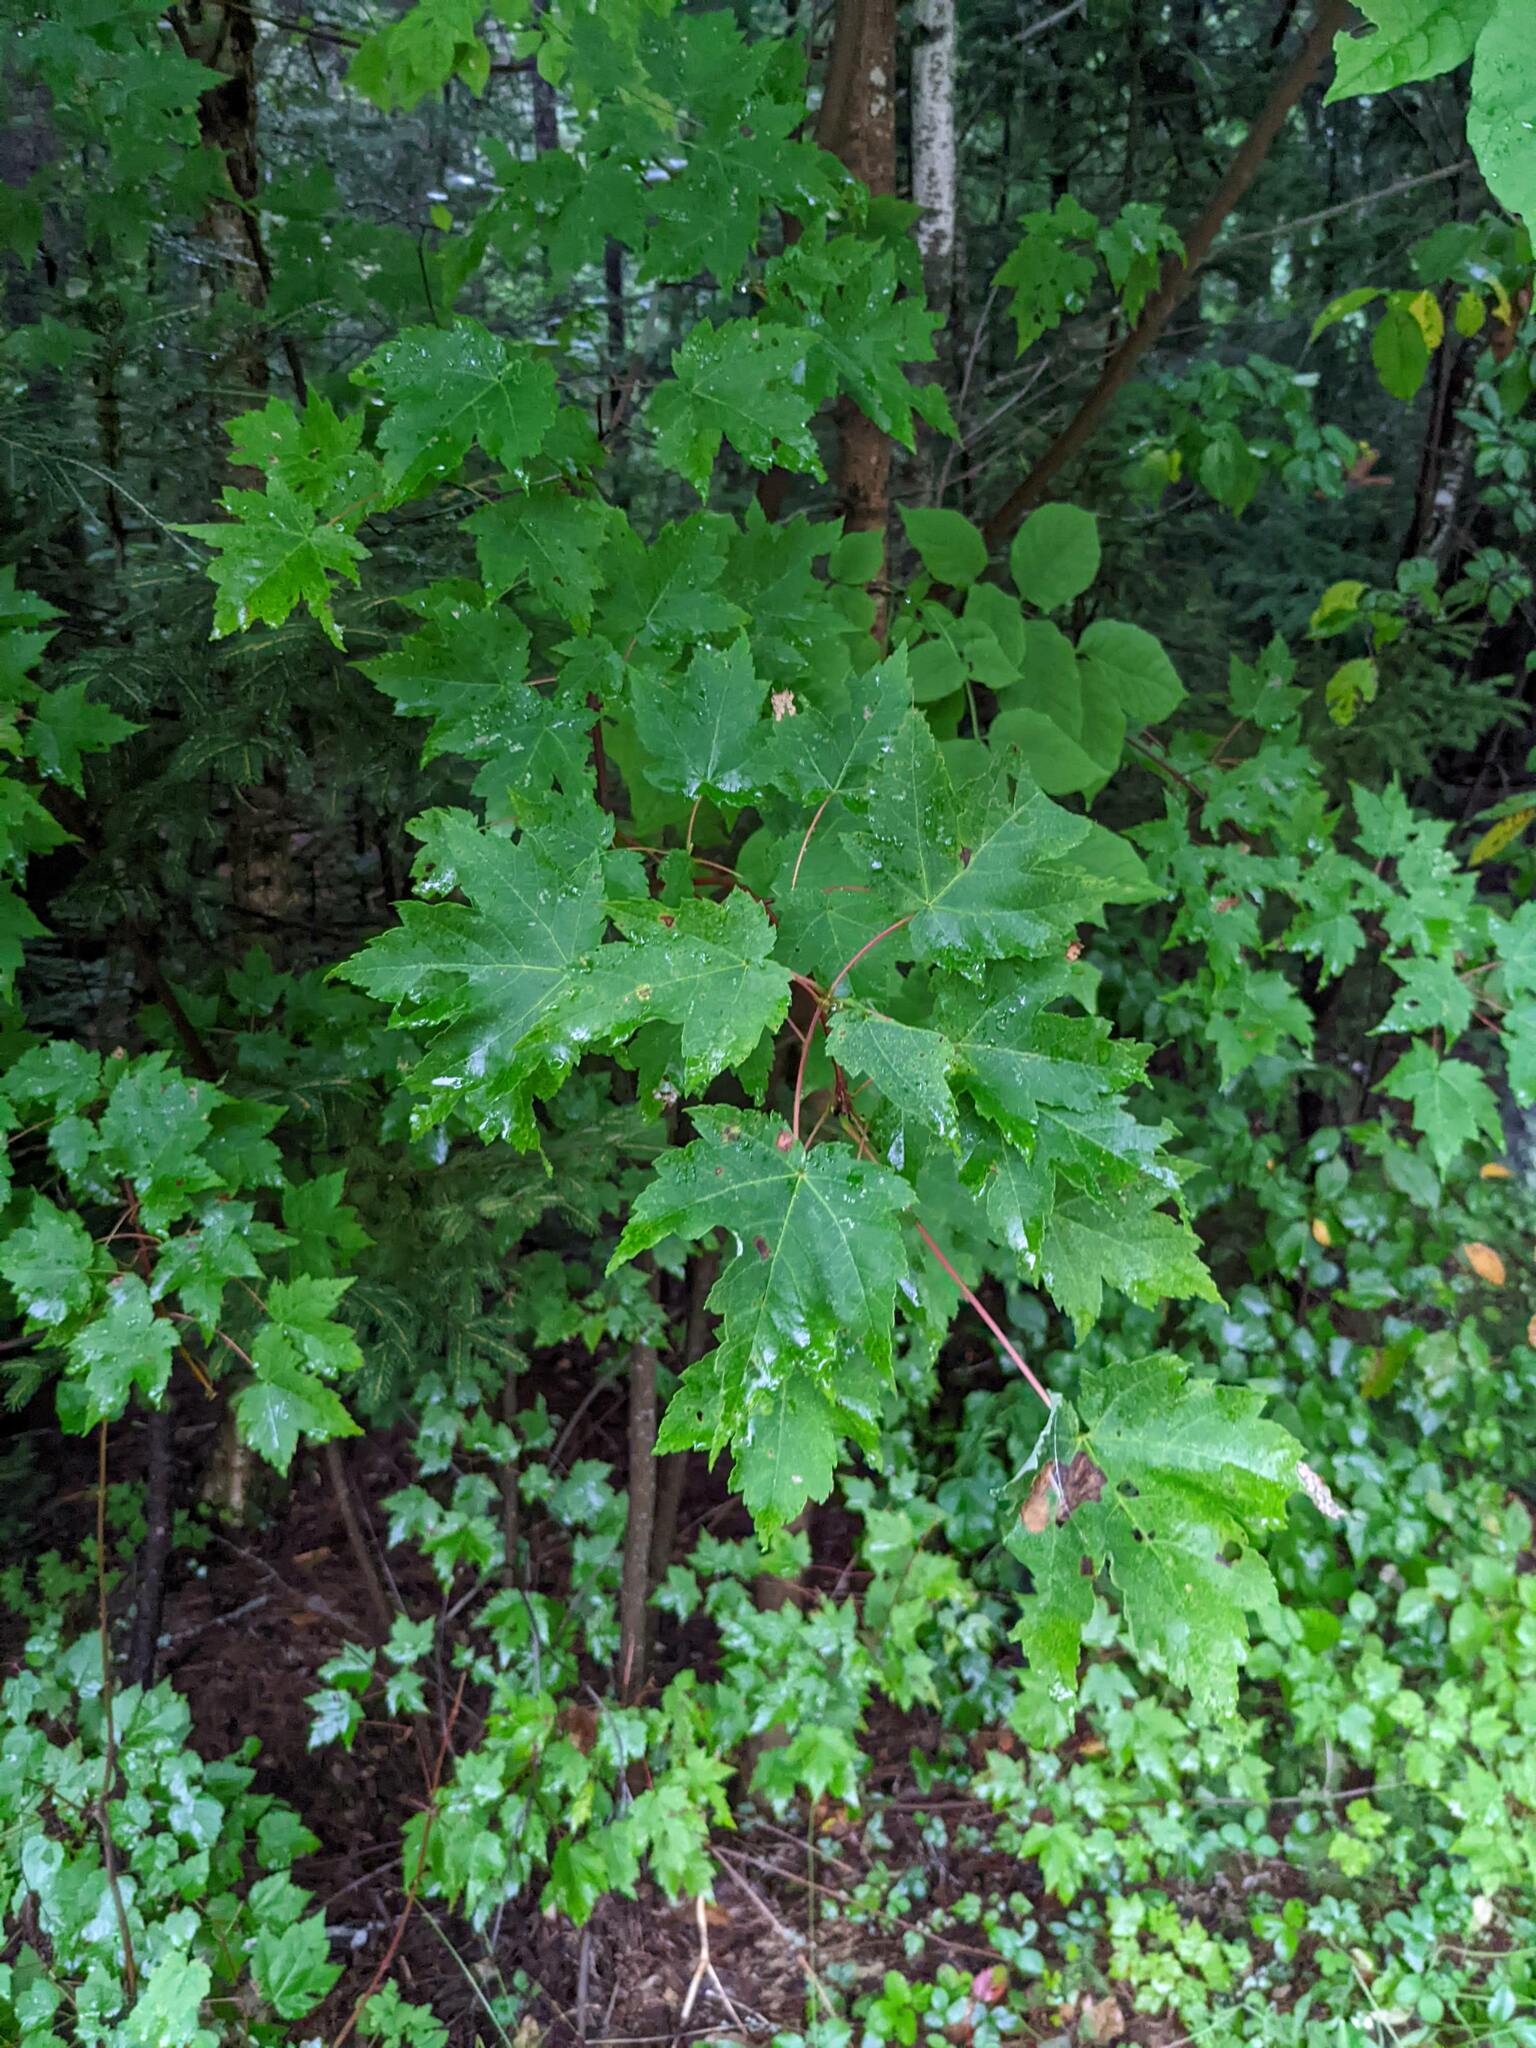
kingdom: Plantae
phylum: Tracheophyta
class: Magnoliopsida
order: Sapindales
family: Sapindaceae
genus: Acer
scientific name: Acer rubrum
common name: Red maple
